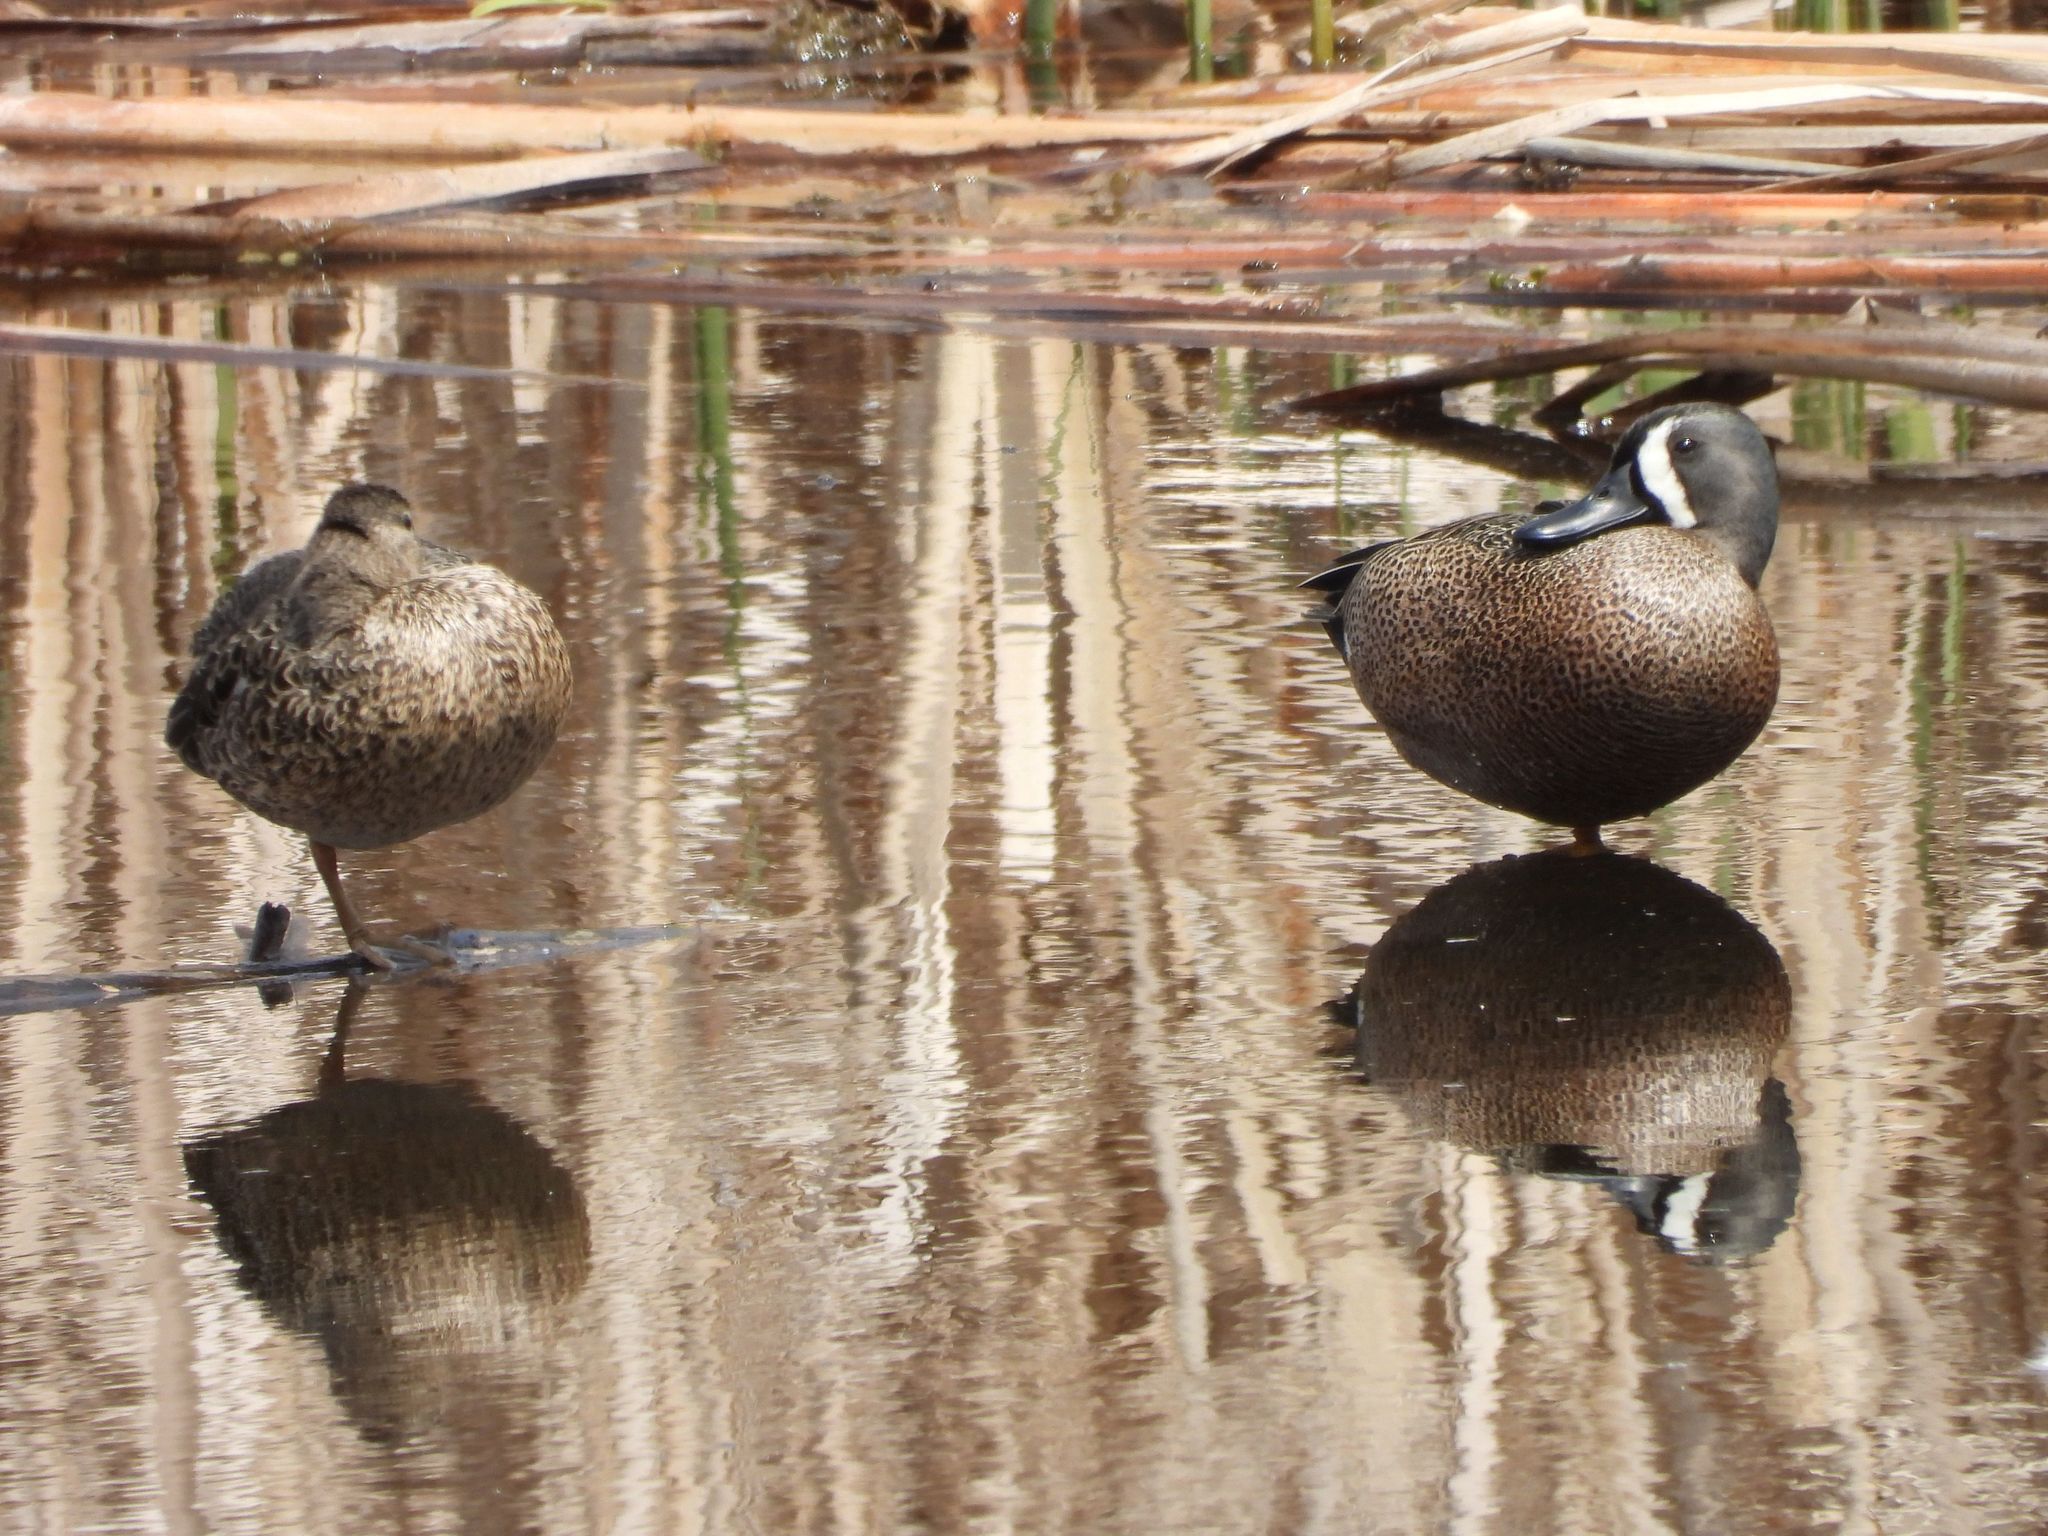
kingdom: Animalia
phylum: Chordata
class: Aves
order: Anseriformes
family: Anatidae
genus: Spatula
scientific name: Spatula discors
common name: Blue-winged teal
